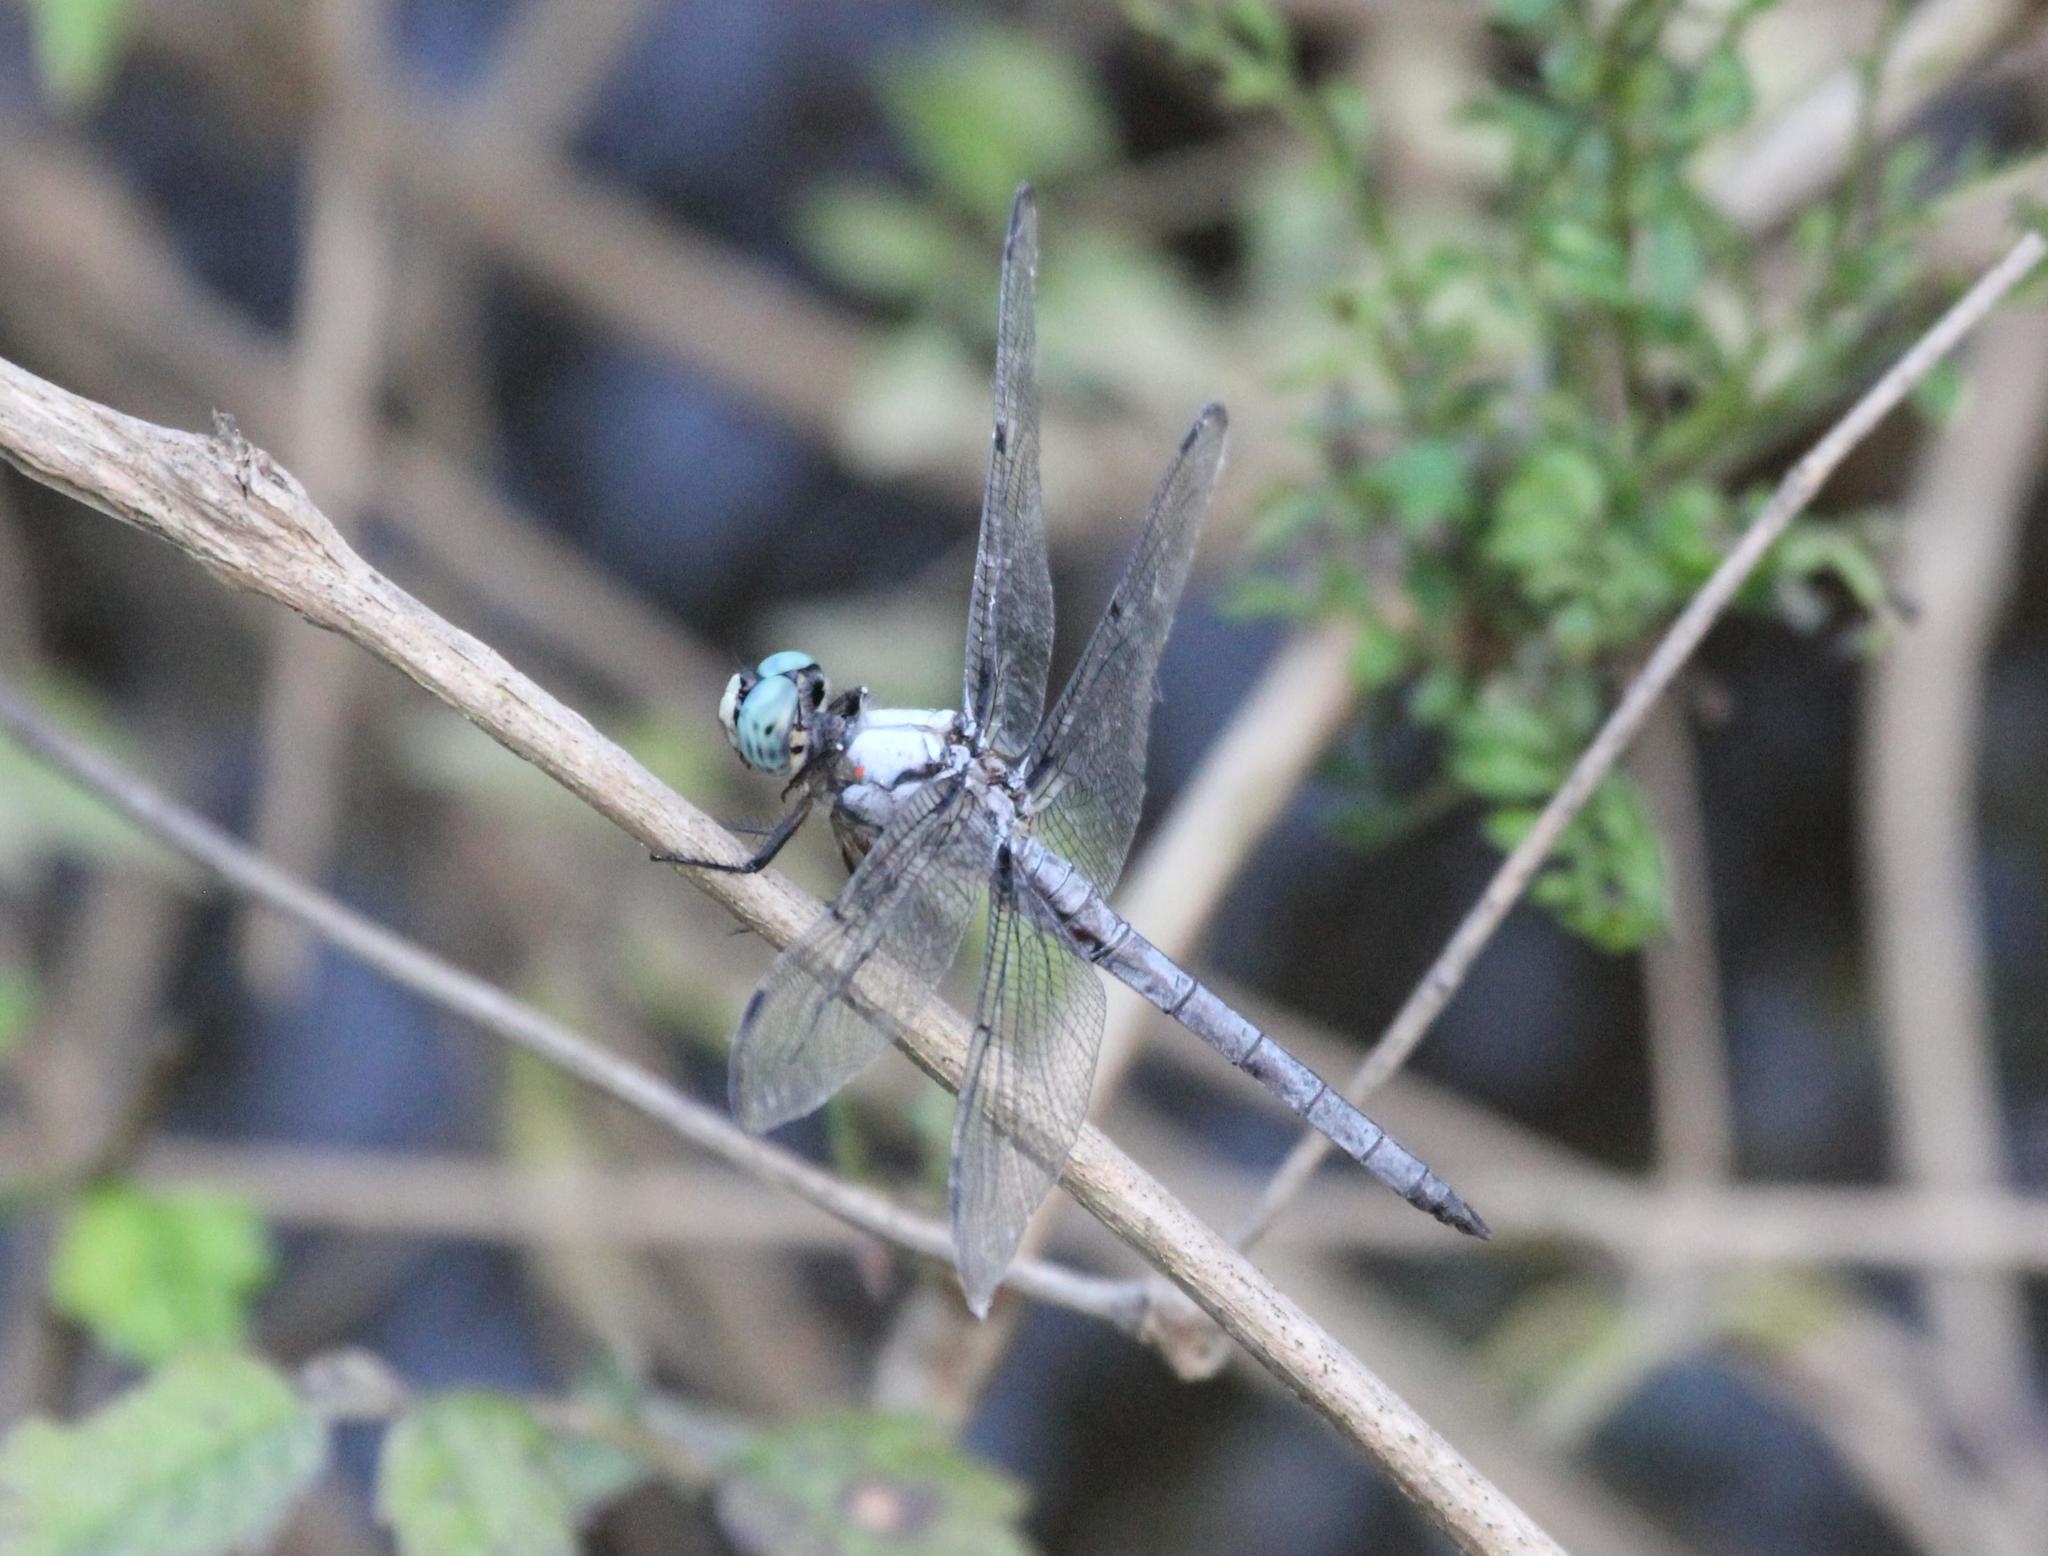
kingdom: Animalia
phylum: Arthropoda
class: Insecta
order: Odonata
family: Libellulidae
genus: Libellula
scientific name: Libellula vibrans
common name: Great blue skimmer
